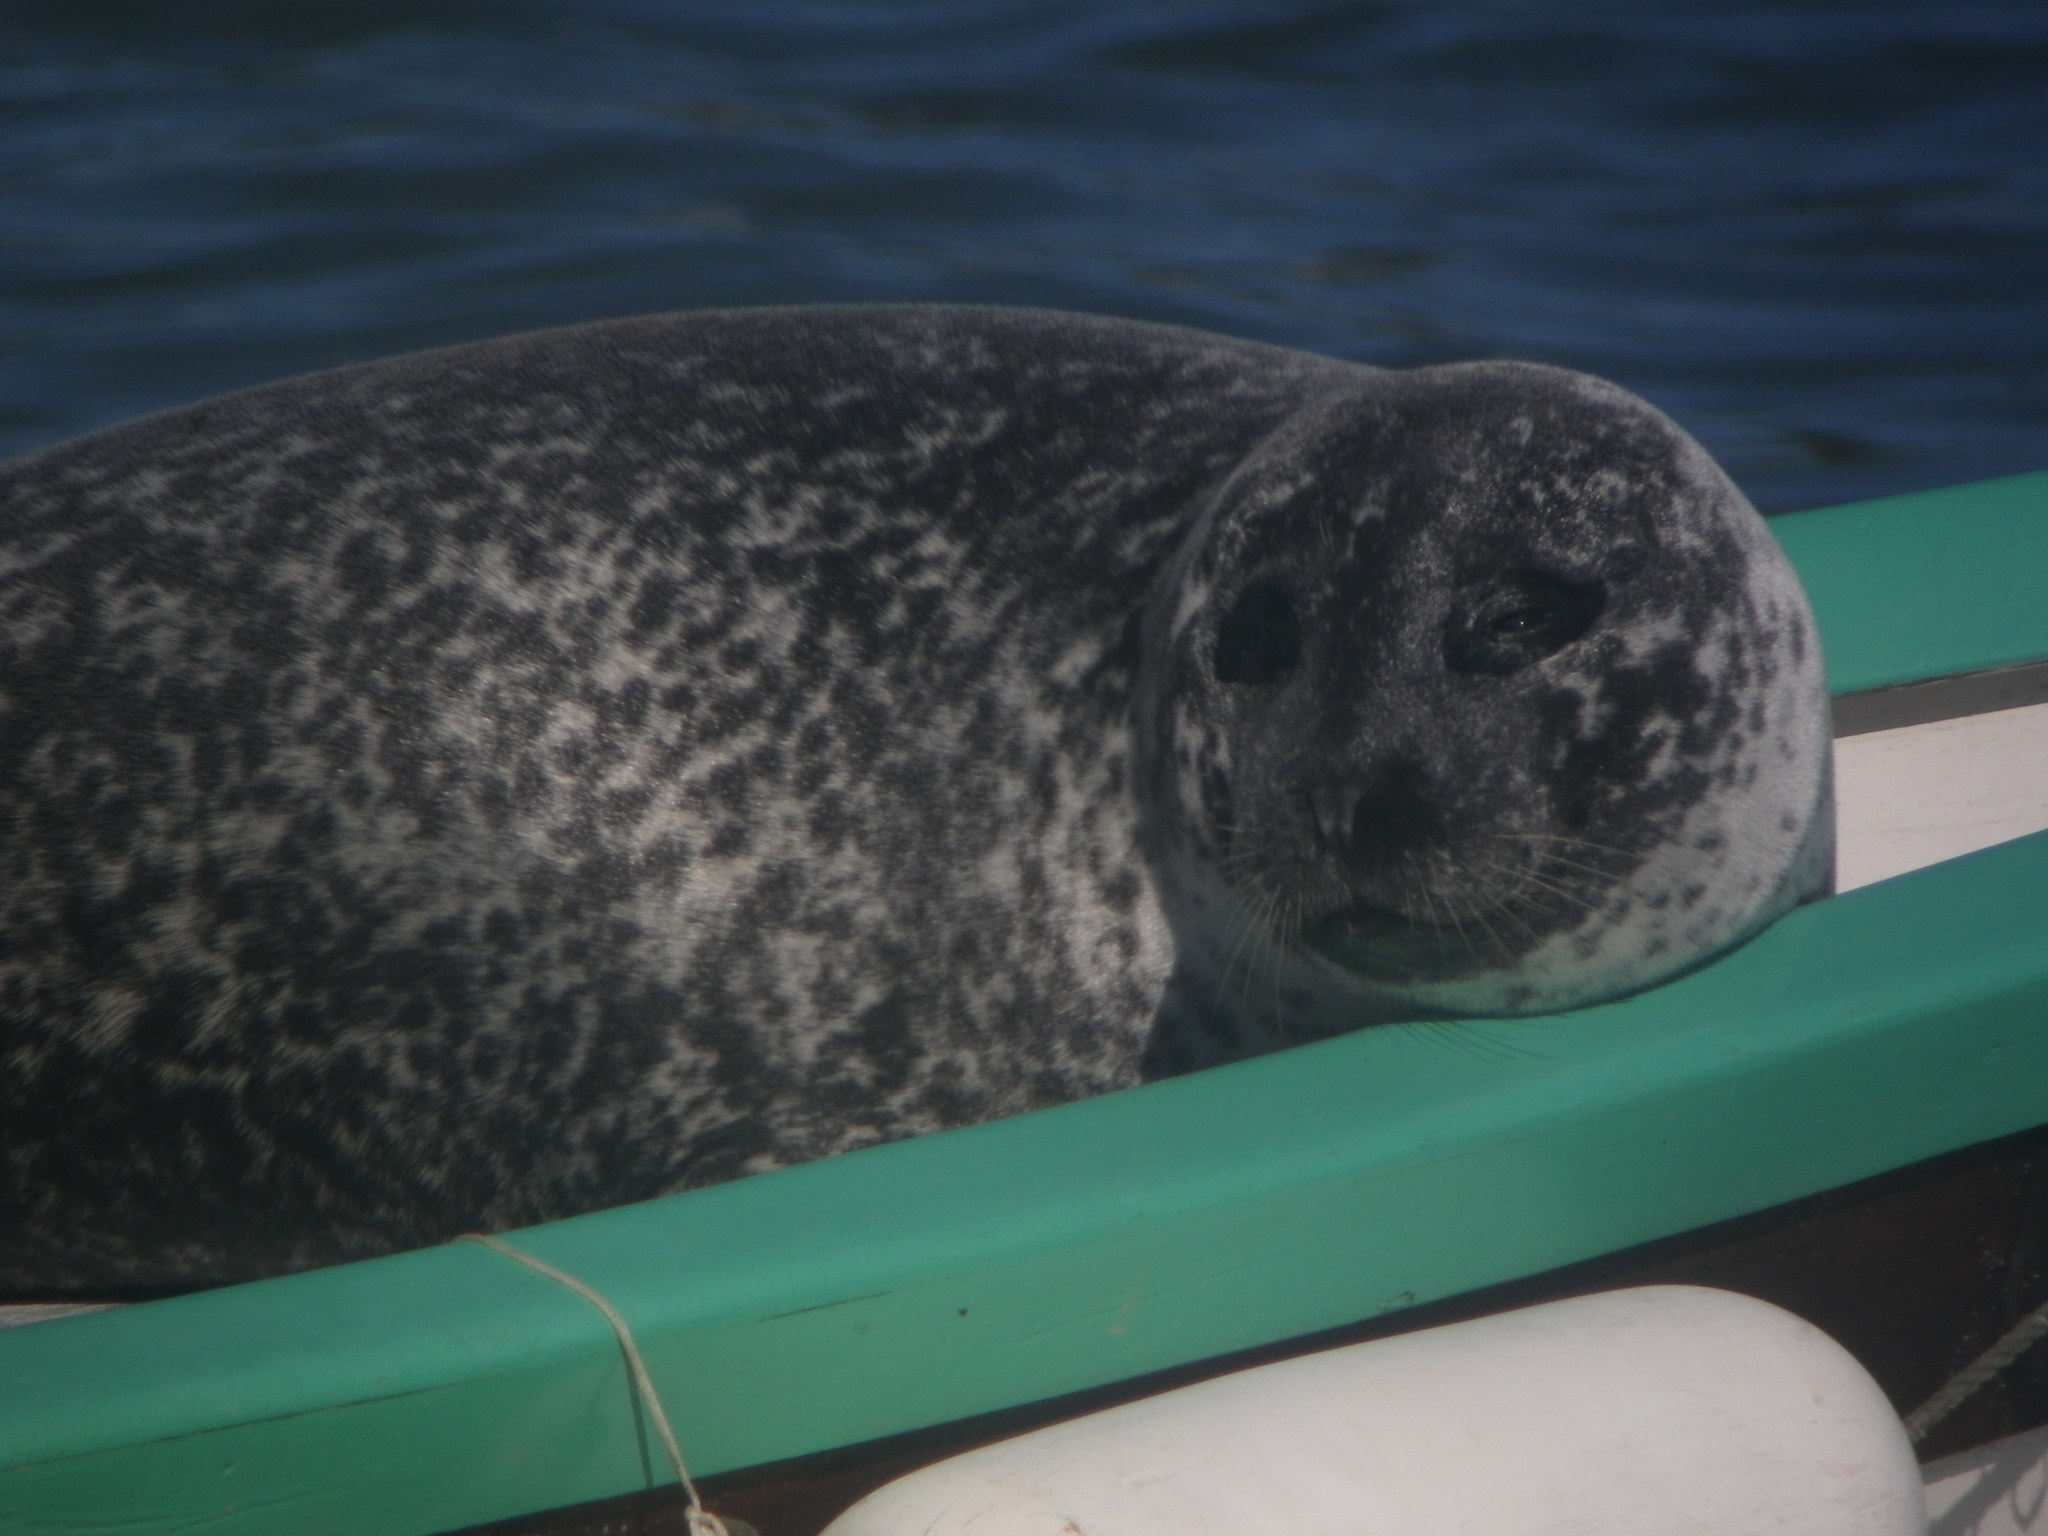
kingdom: Animalia
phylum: Chordata
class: Mammalia
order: Carnivora
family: Phocidae
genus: Phoca
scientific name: Phoca vitulina
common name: Harbor seal
